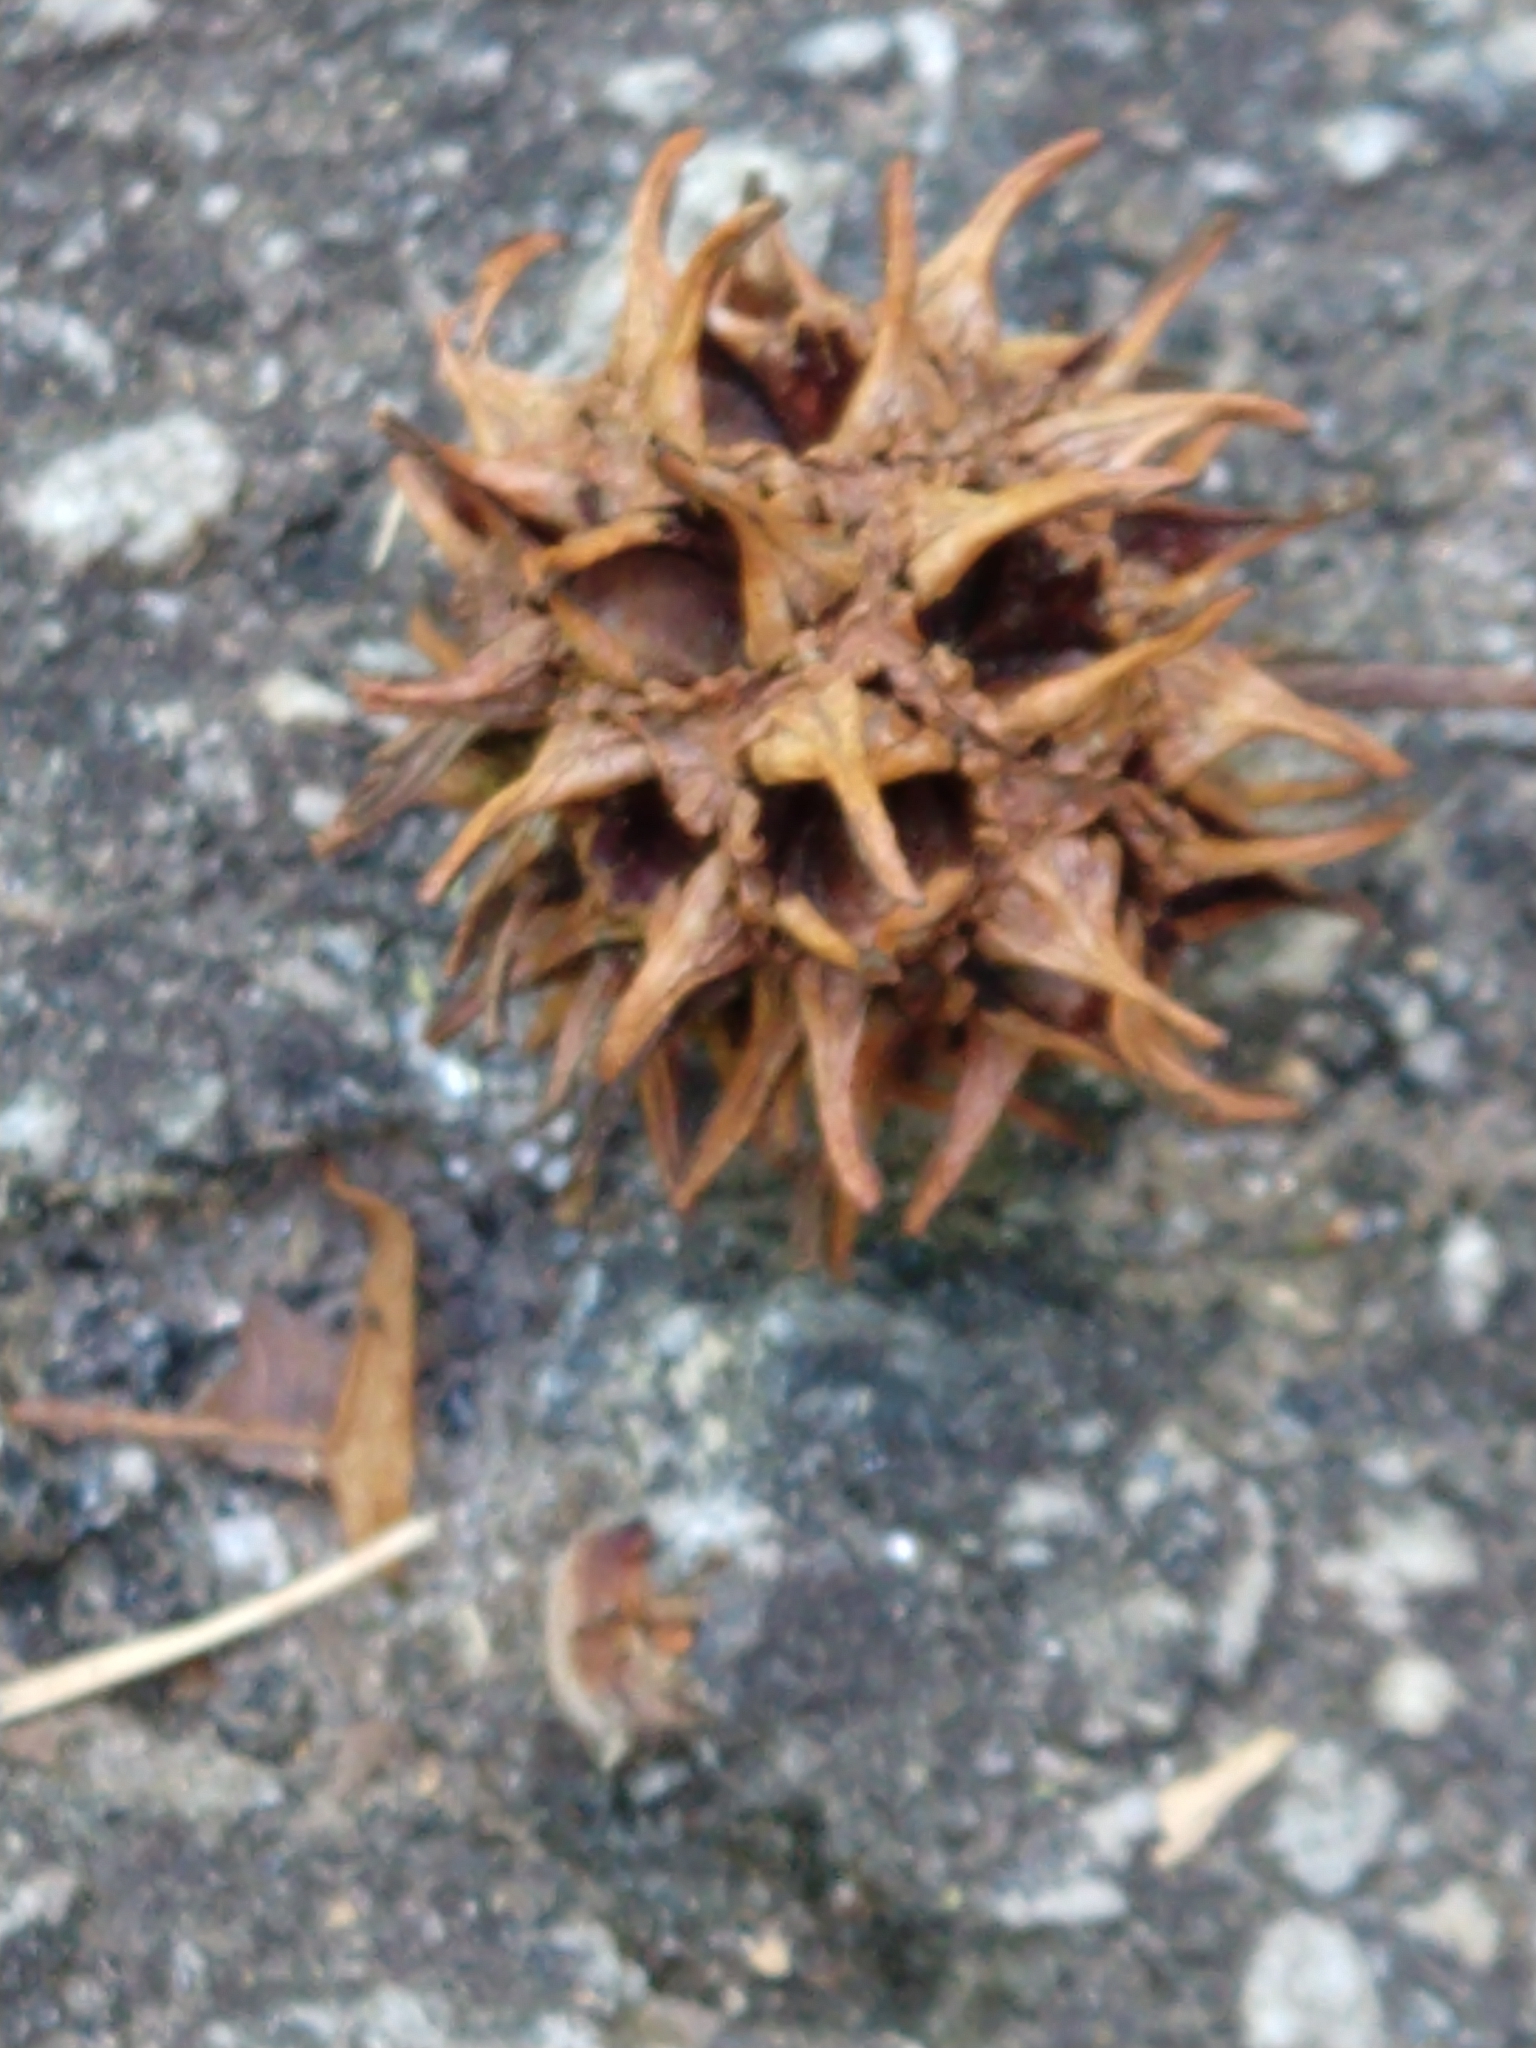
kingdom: Plantae
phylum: Tracheophyta
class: Magnoliopsida
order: Saxifragales
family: Altingiaceae
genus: Liquidambar
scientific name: Liquidambar styraciflua
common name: Sweet gum
